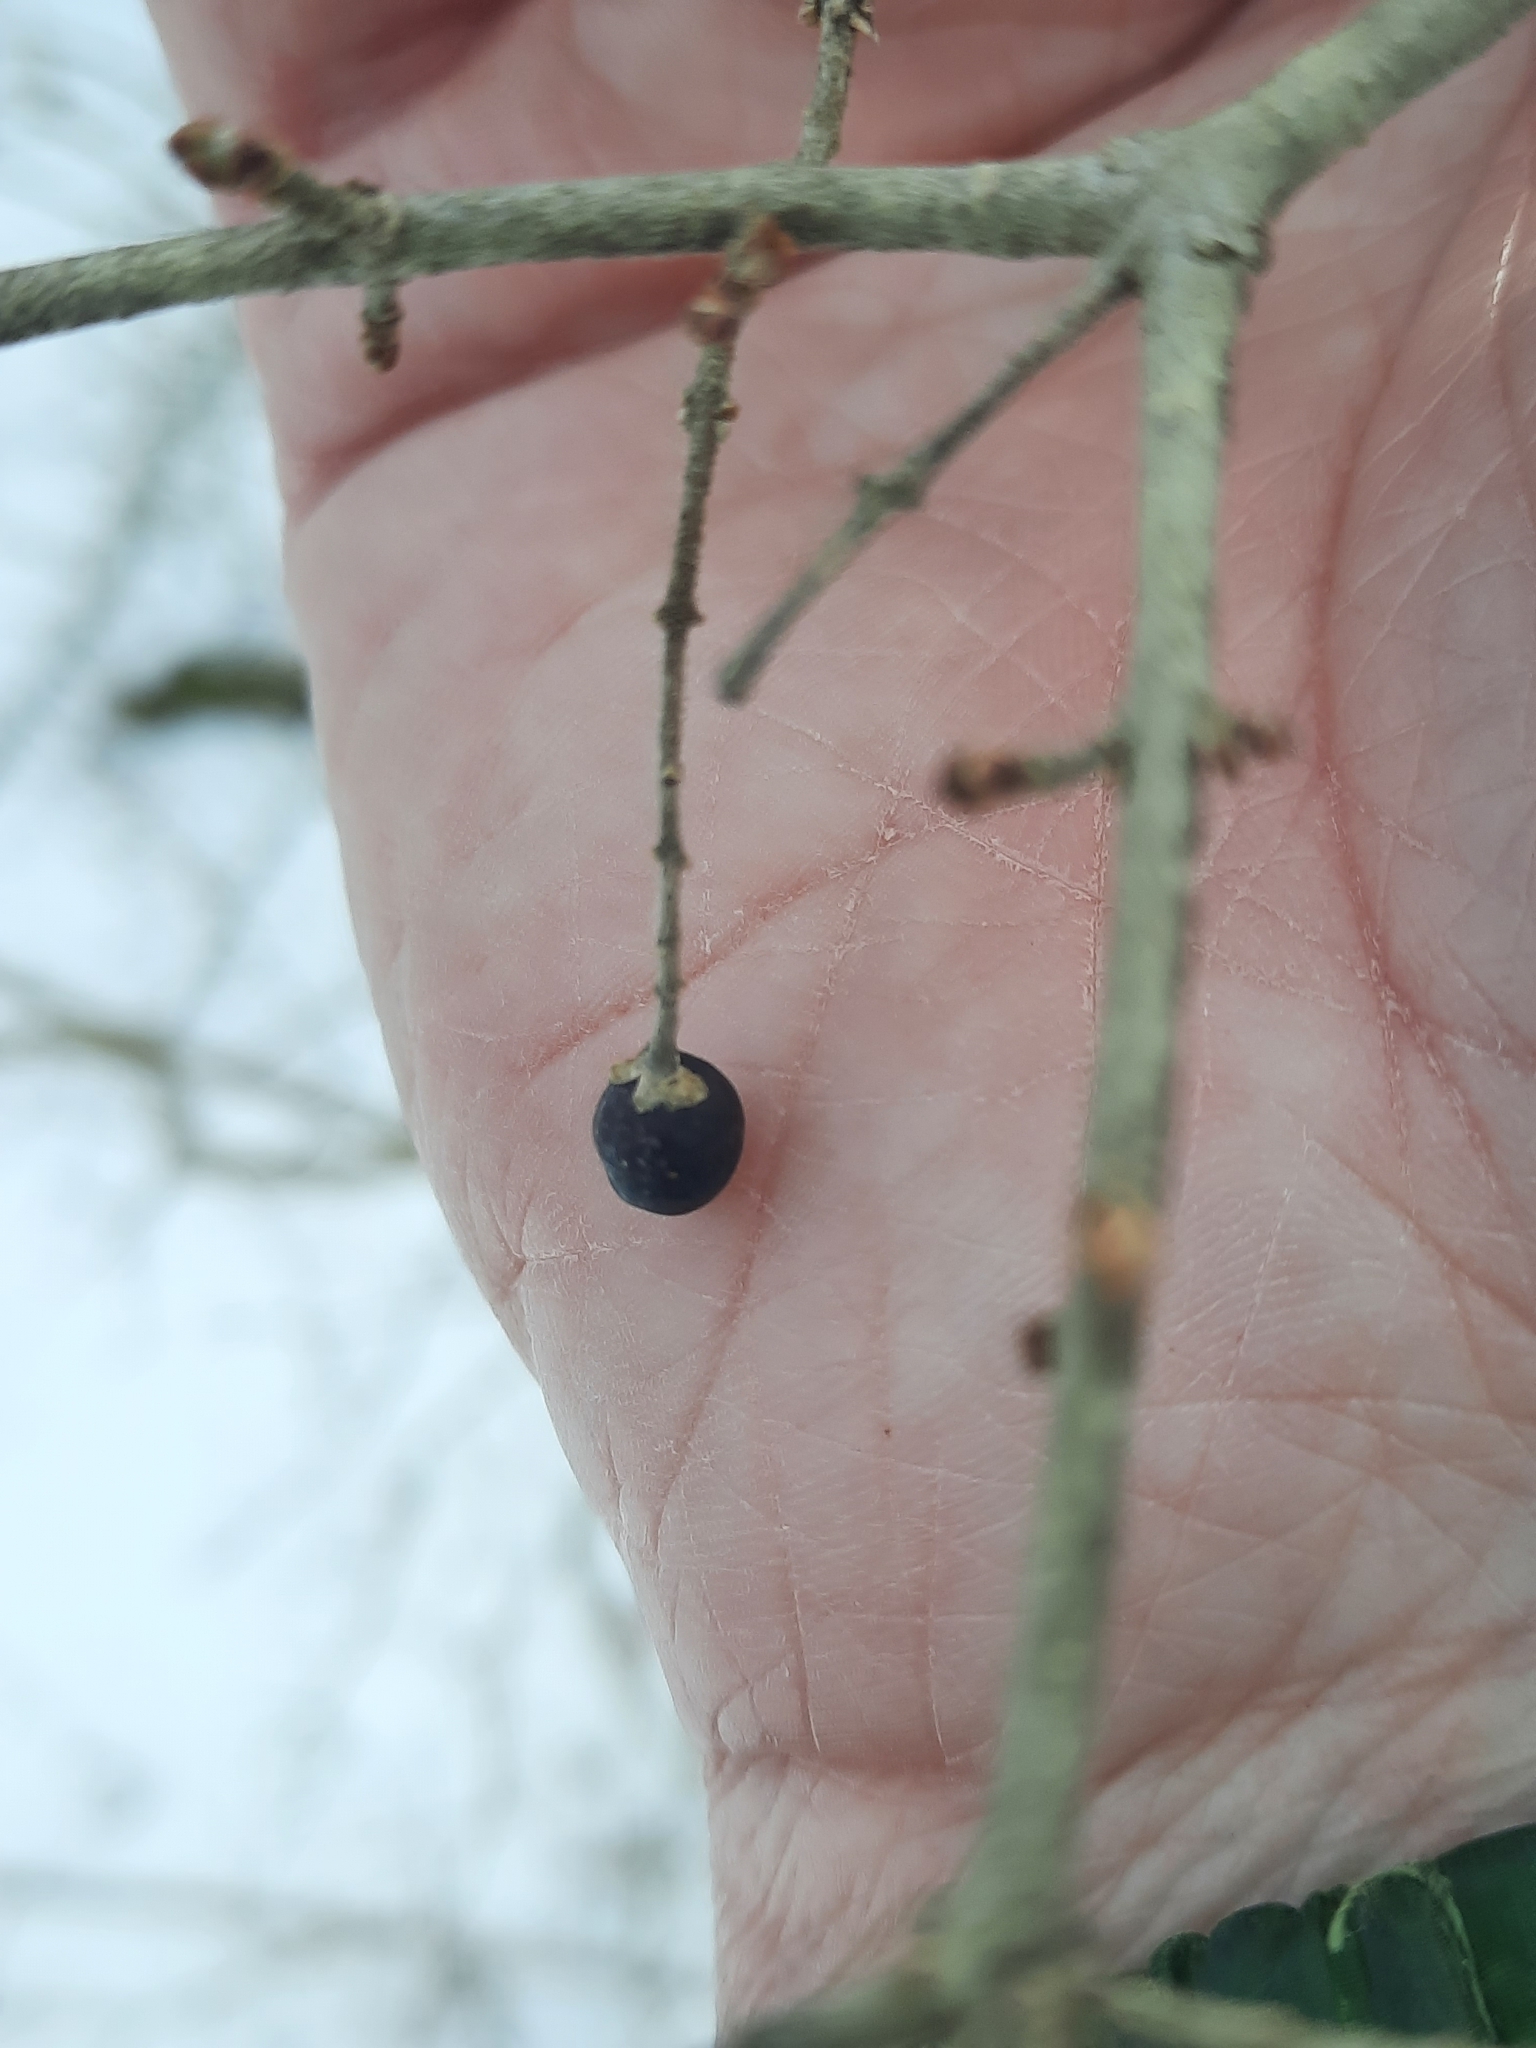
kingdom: Plantae
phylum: Tracheophyta
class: Magnoliopsida
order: Lamiales
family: Oleaceae
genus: Ligustrum
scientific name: Ligustrum obtusifolium
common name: Border privet
